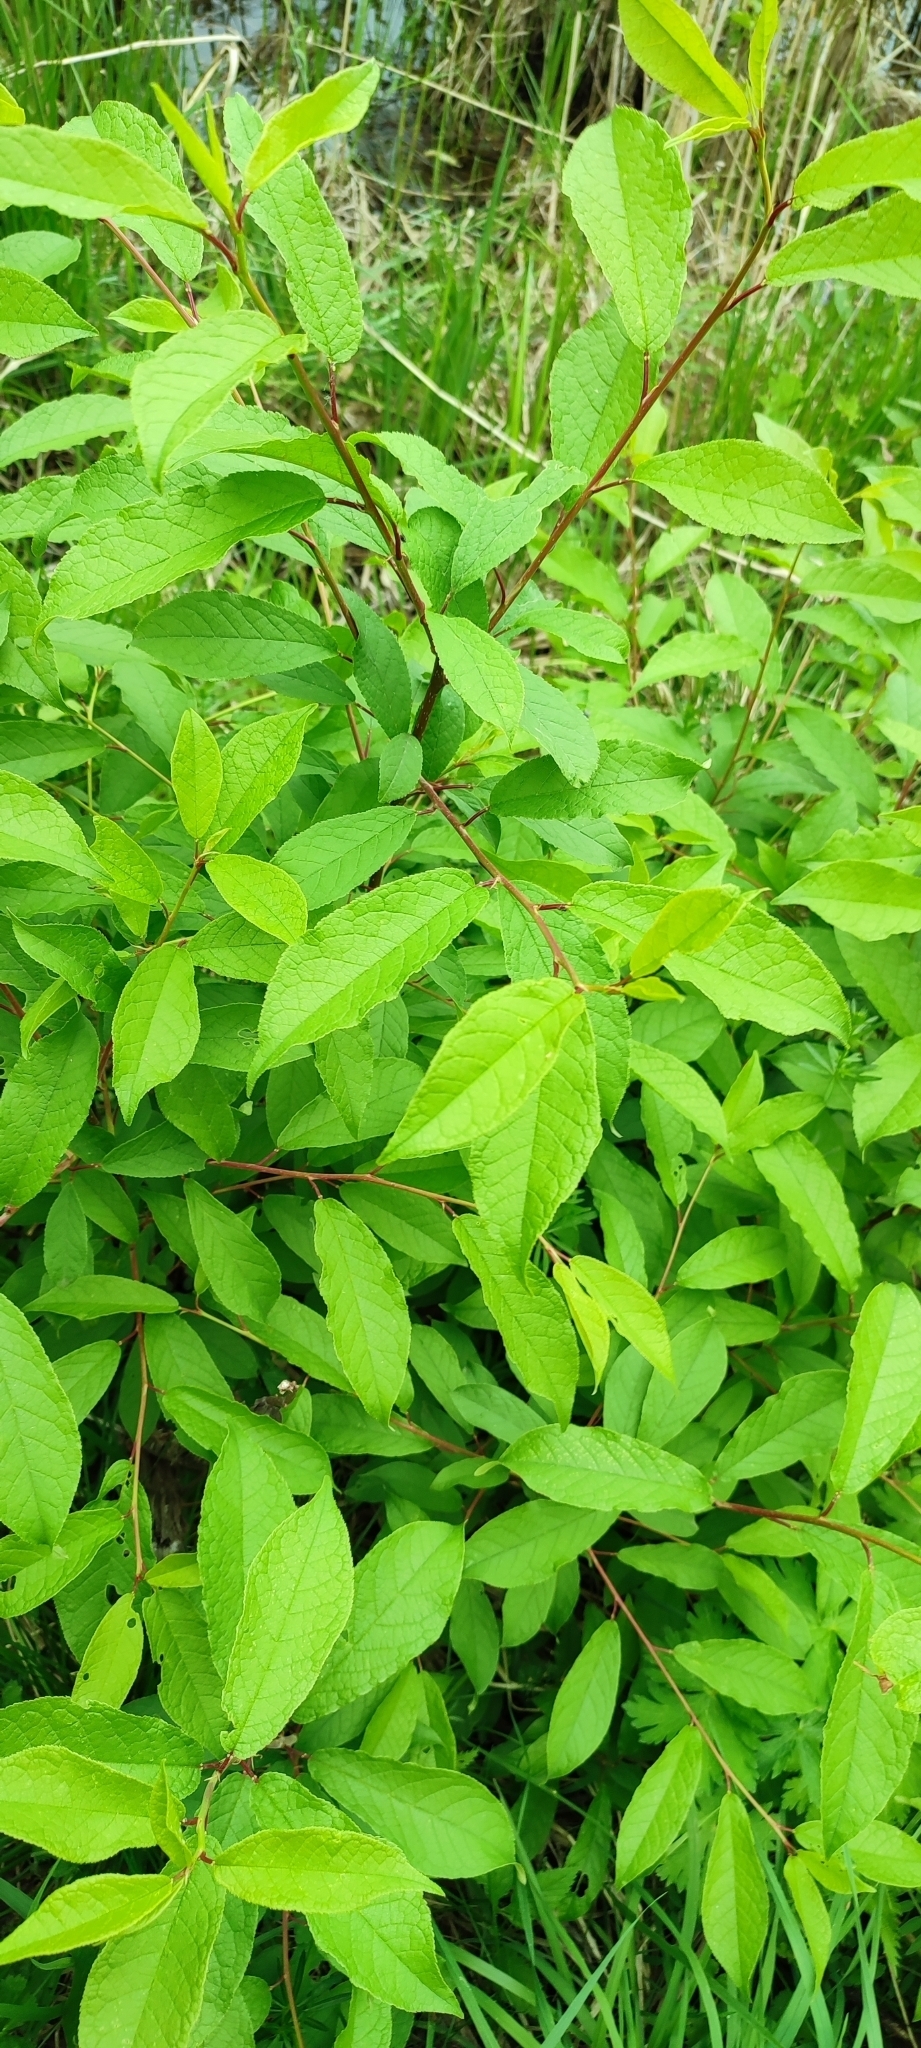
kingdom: Plantae
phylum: Tracheophyta
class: Magnoliopsida
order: Rosales
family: Rosaceae
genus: Prunus
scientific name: Prunus padus
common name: Bird cherry
